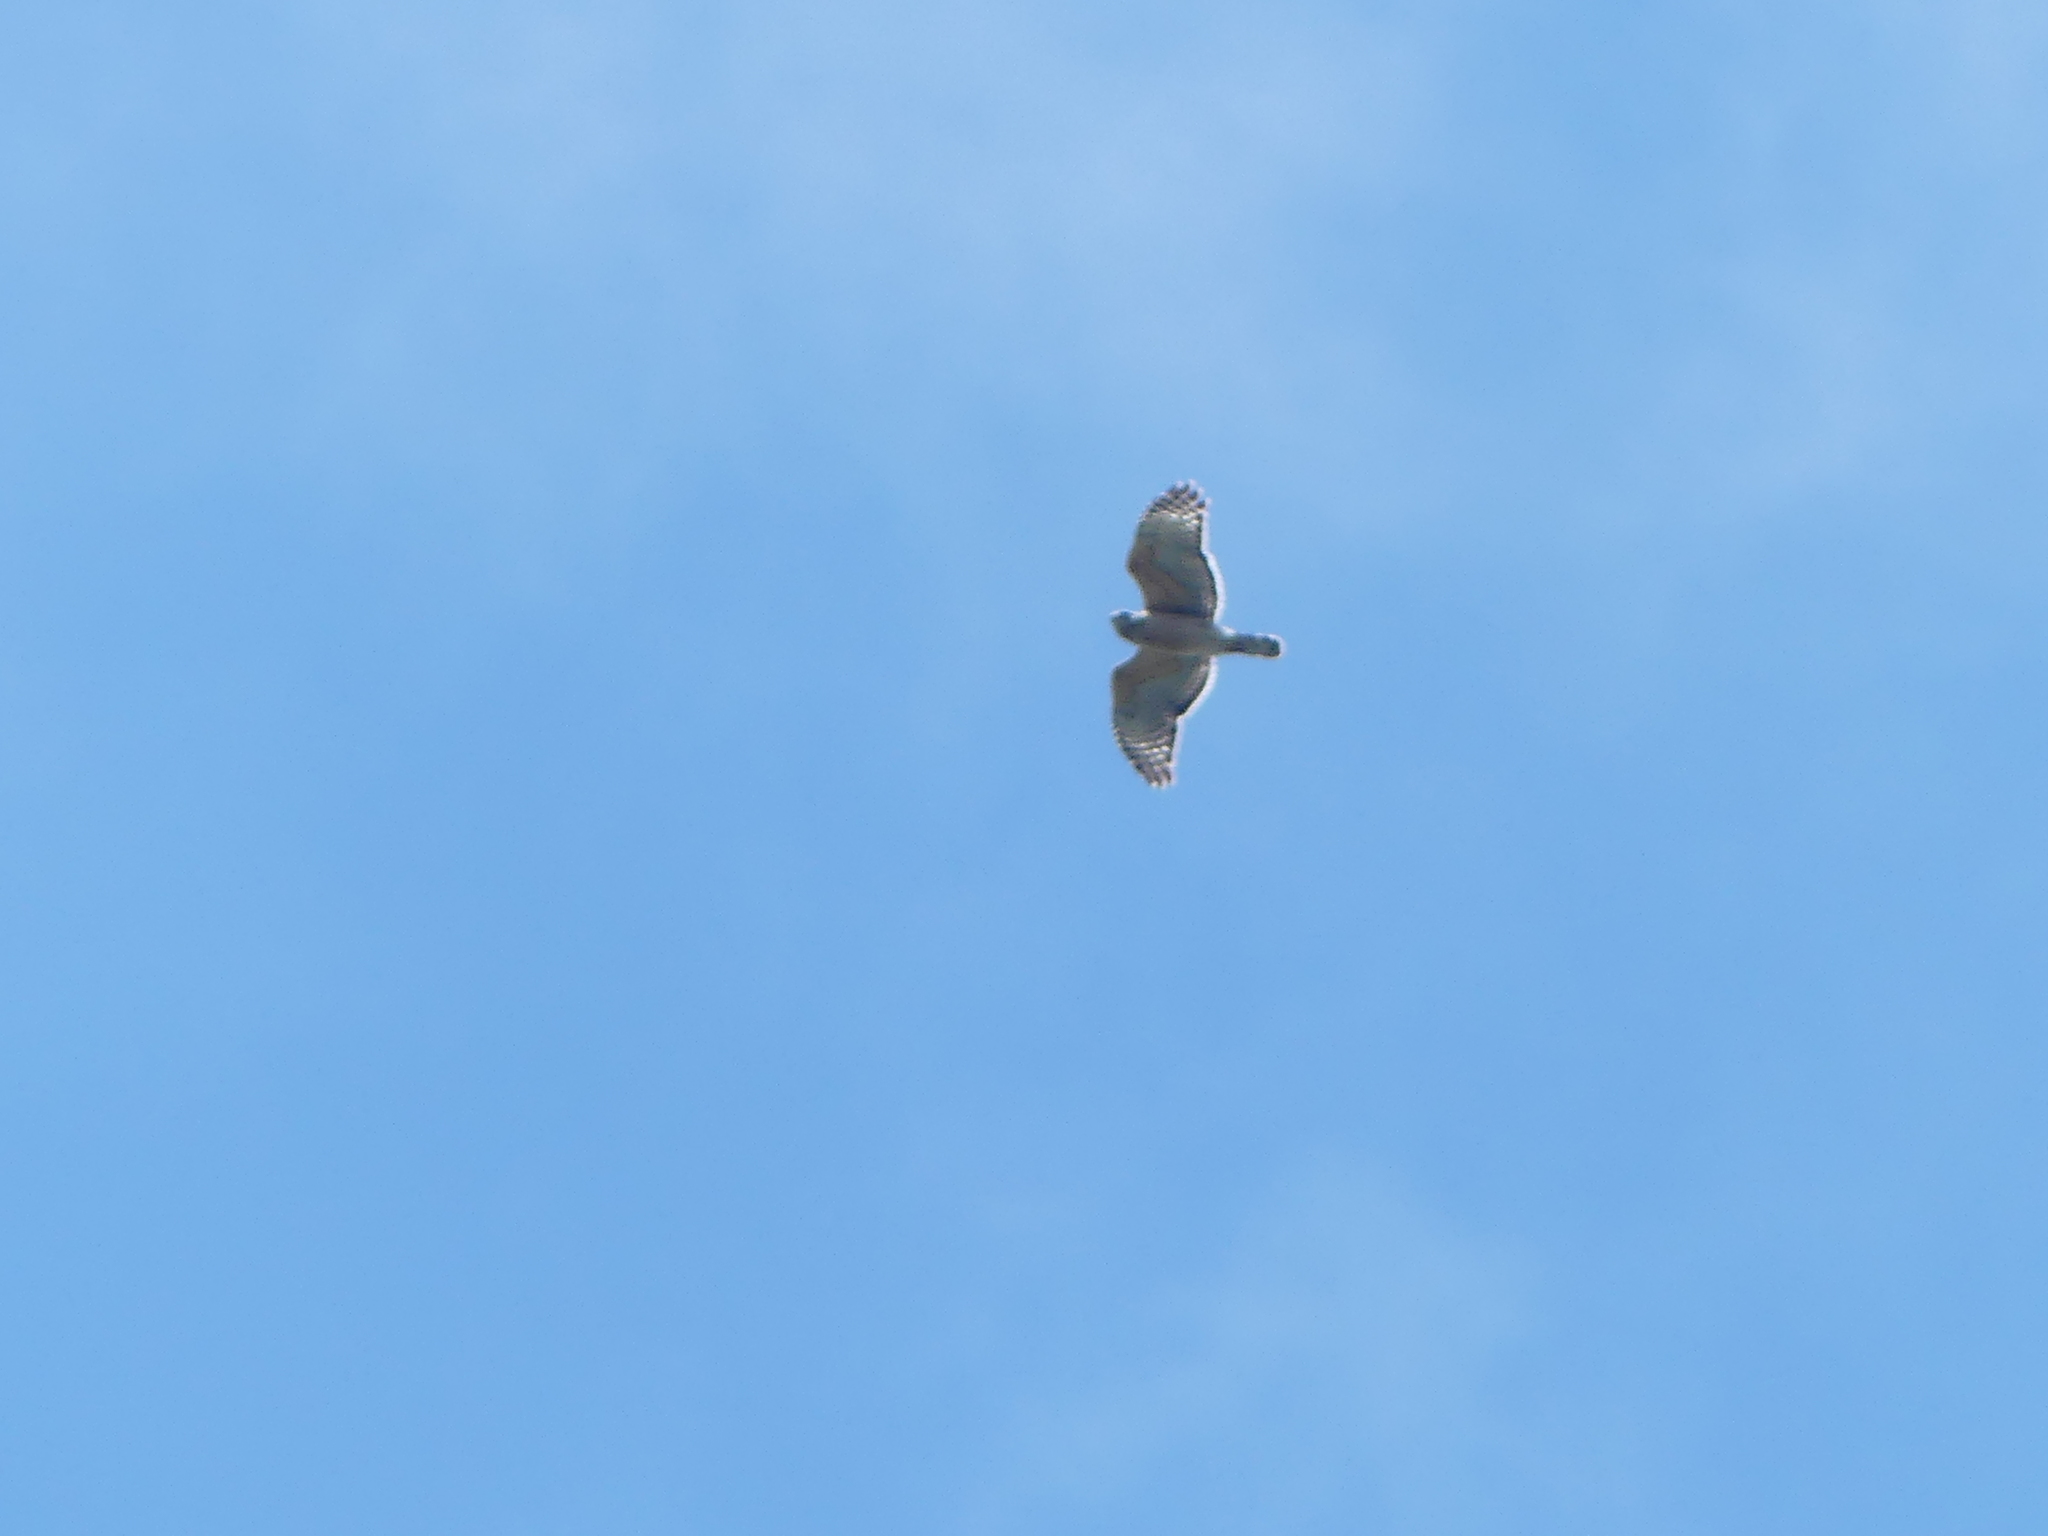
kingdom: Animalia
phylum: Chordata
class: Aves
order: Accipitriformes
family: Accipitridae
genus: Buteo
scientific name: Buteo lineatus
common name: Red-shouldered hawk
